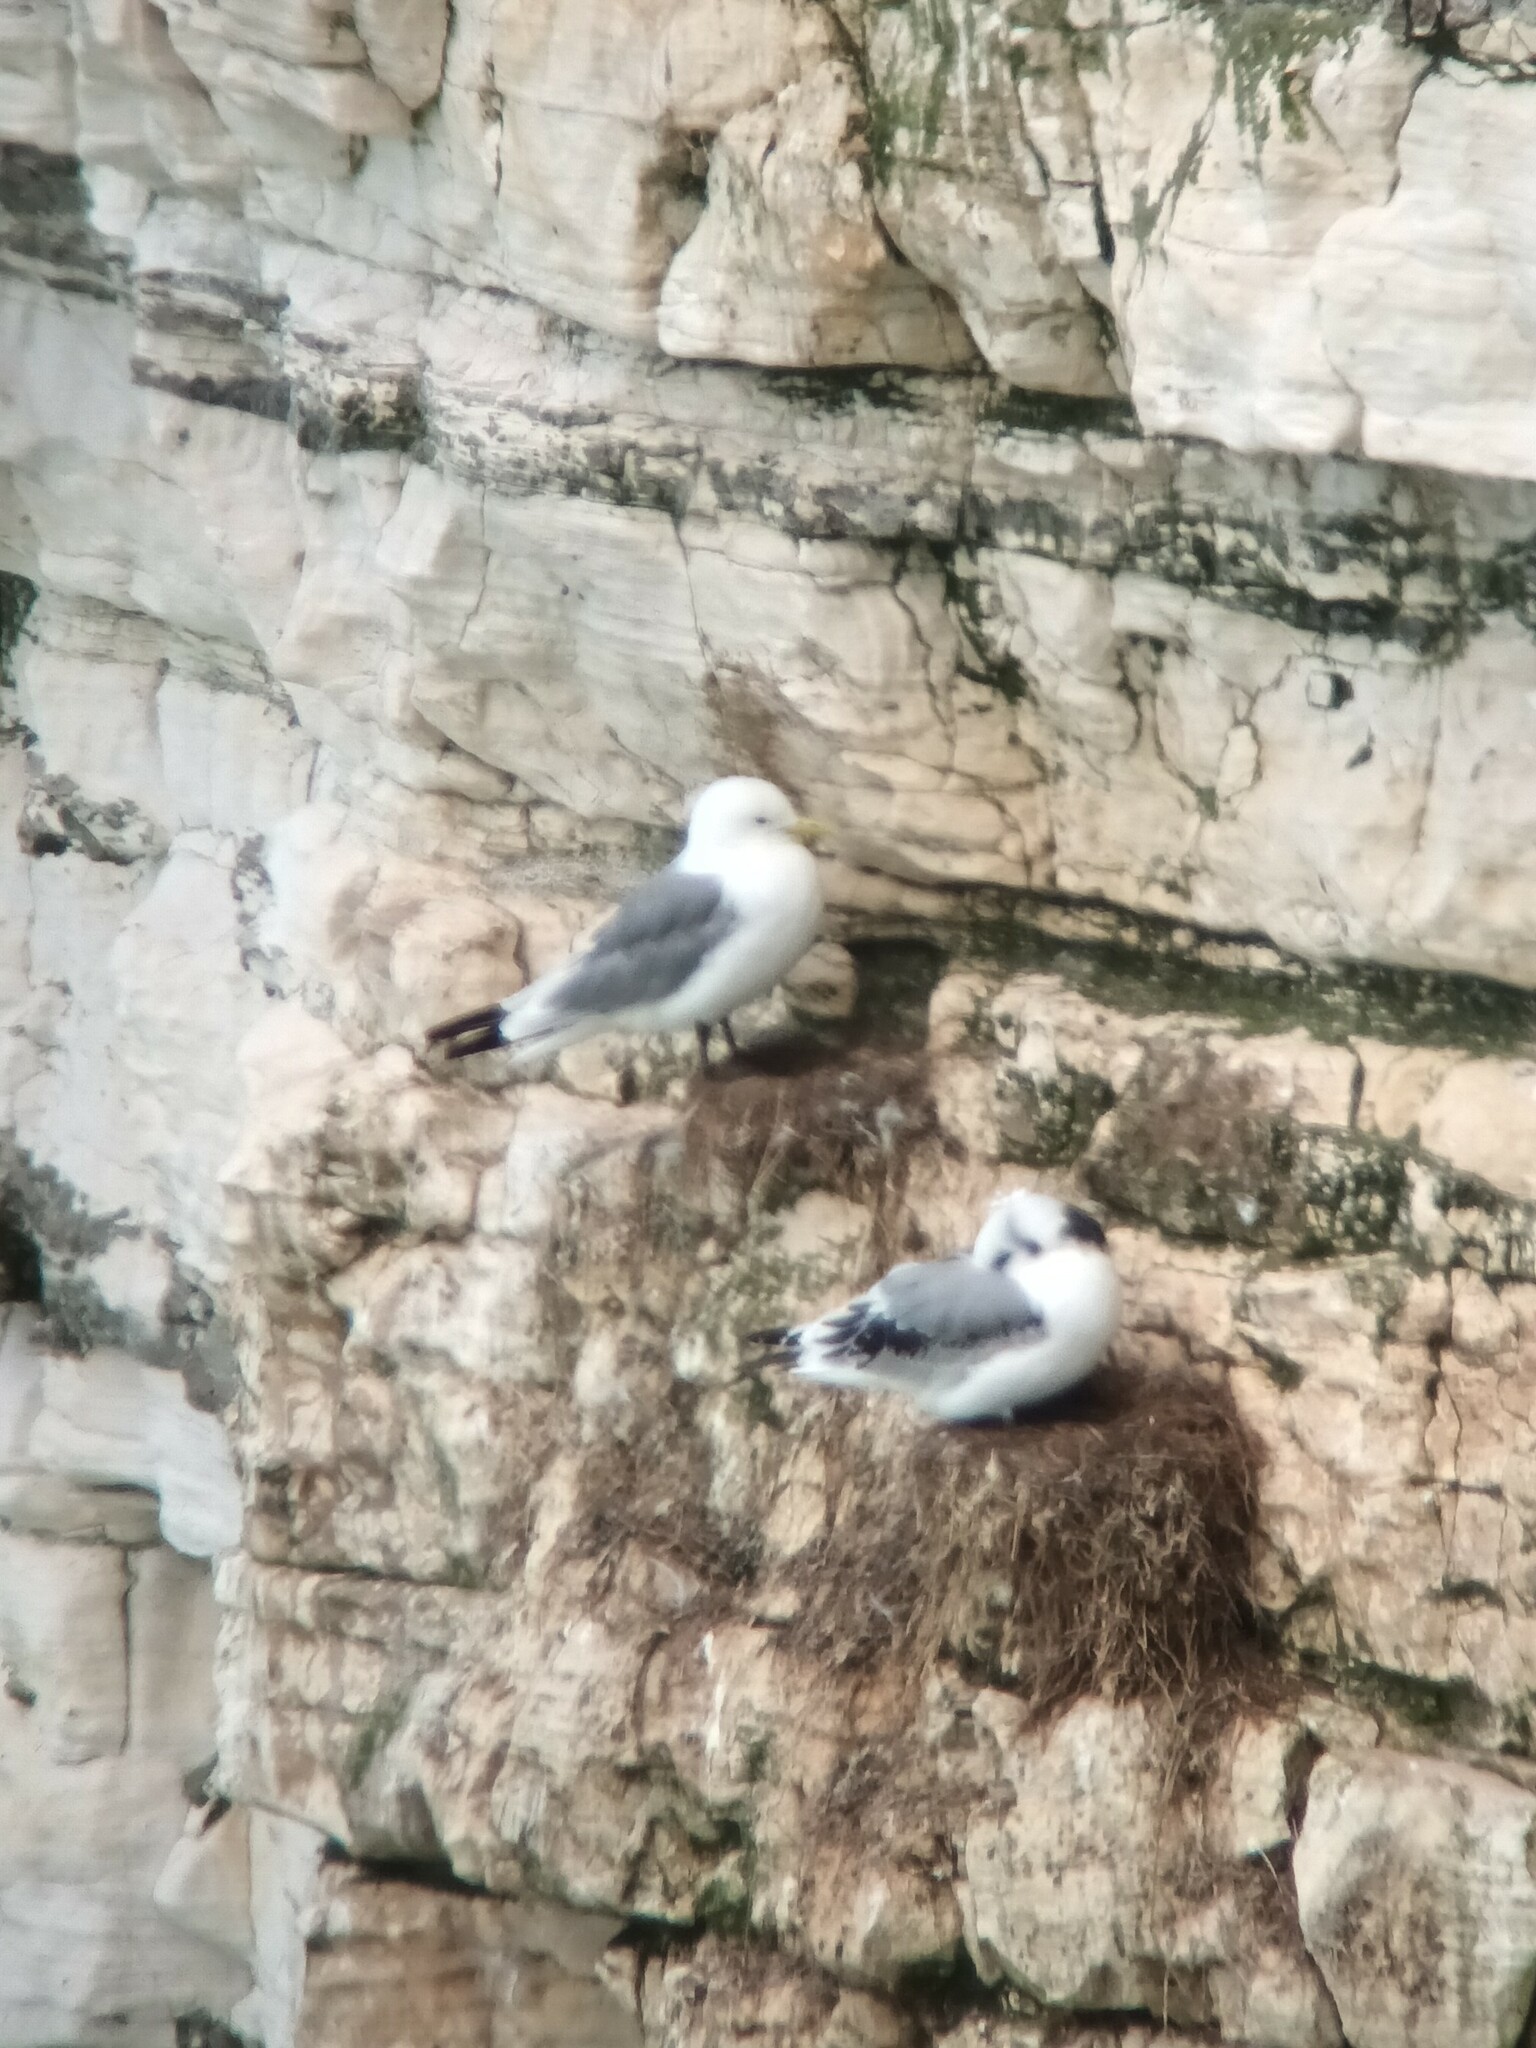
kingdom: Animalia
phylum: Chordata
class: Aves
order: Charadriiformes
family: Laridae
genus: Rissa
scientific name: Rissa tridactyla
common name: Black-legged kittiwake
